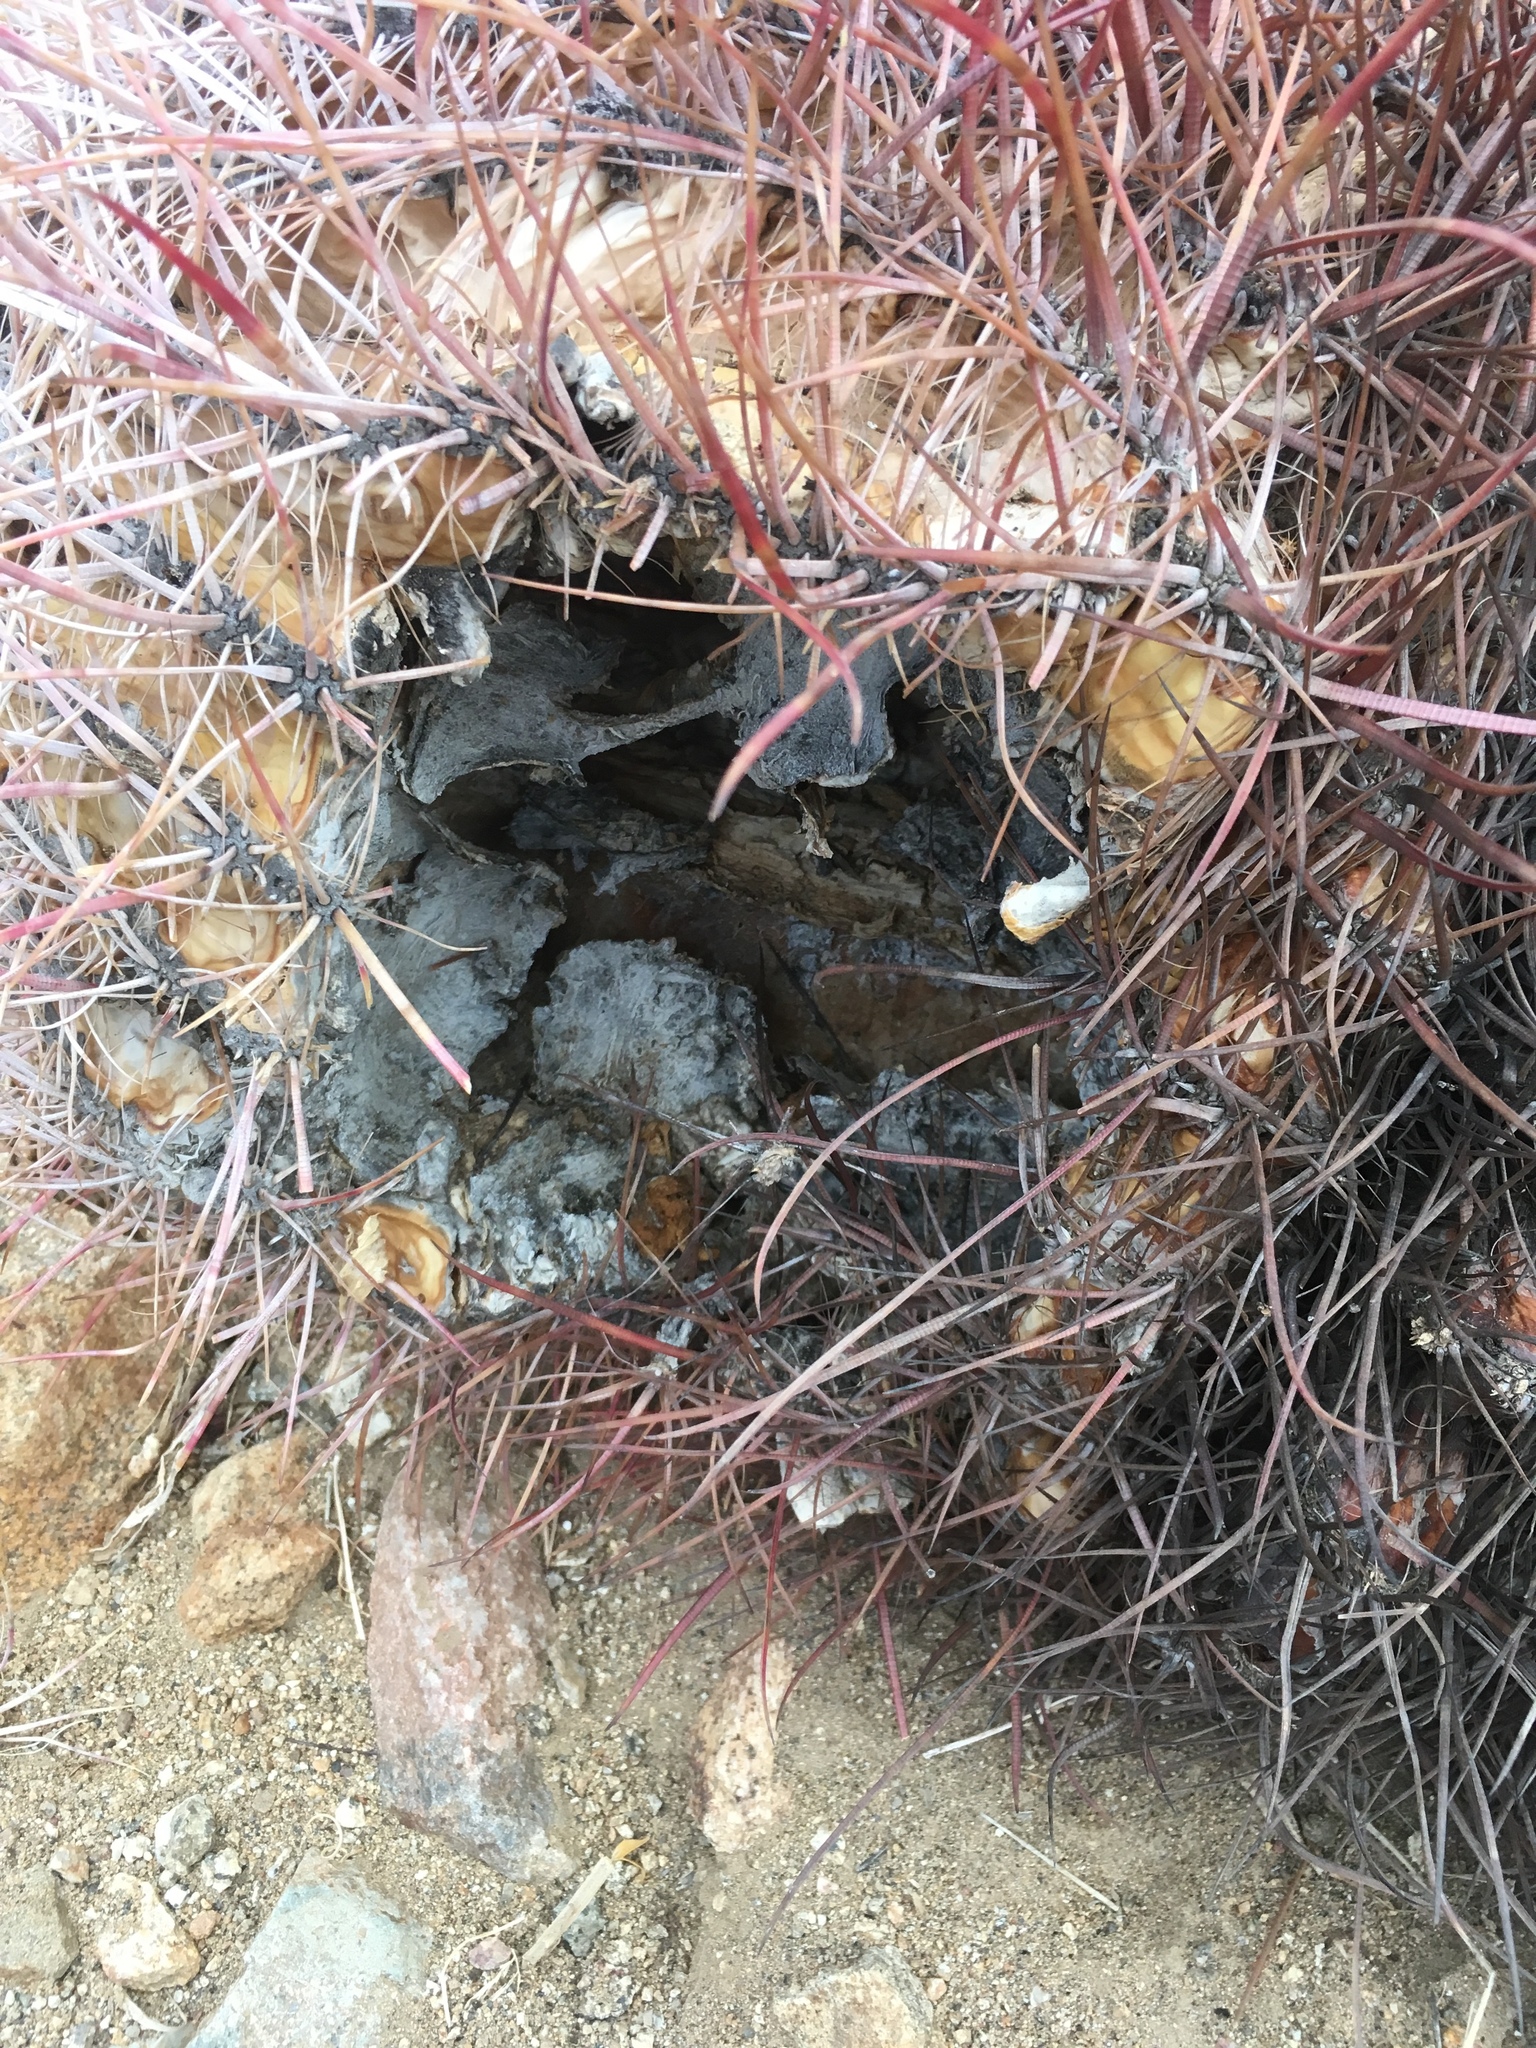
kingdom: Plantae
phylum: Tracheophyta
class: Magnoliopsida
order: Caryophyllales
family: Cactaceae
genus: Ferocactus
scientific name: Ferocactus cylindraceus
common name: California barrel cactus
